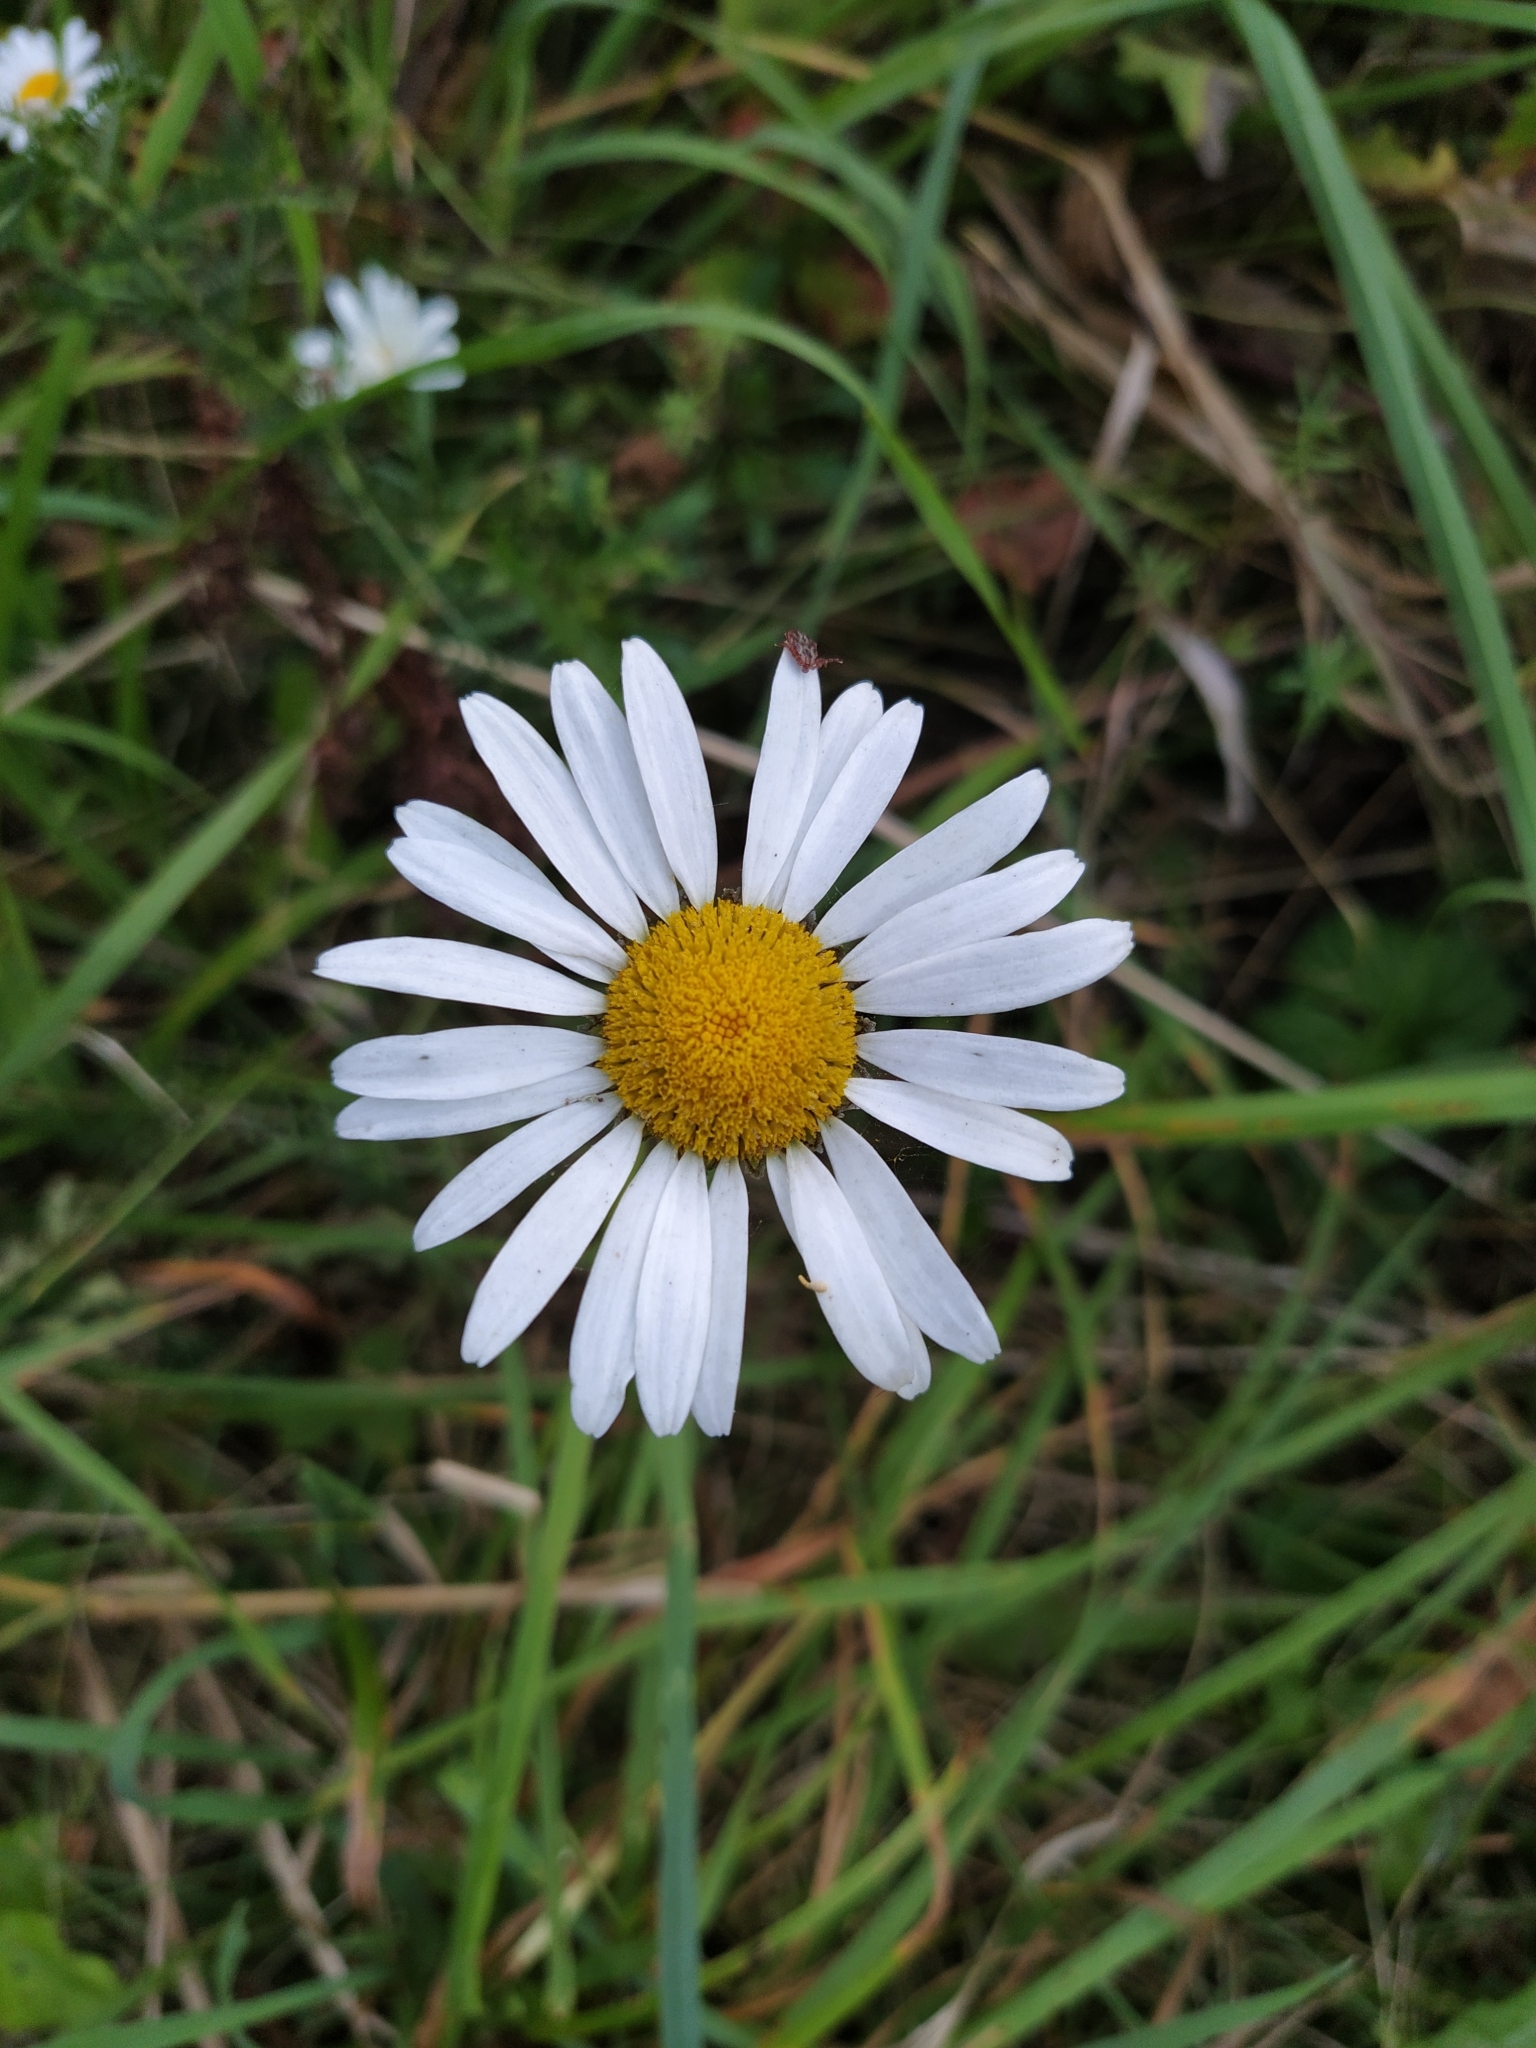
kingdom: Plantae
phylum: Tracheophyta
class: Magnoliopsida
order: Asterales
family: Asteraceae
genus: Leucanthemum
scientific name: Leucanthemum vulgare
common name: Oxeye daisy
